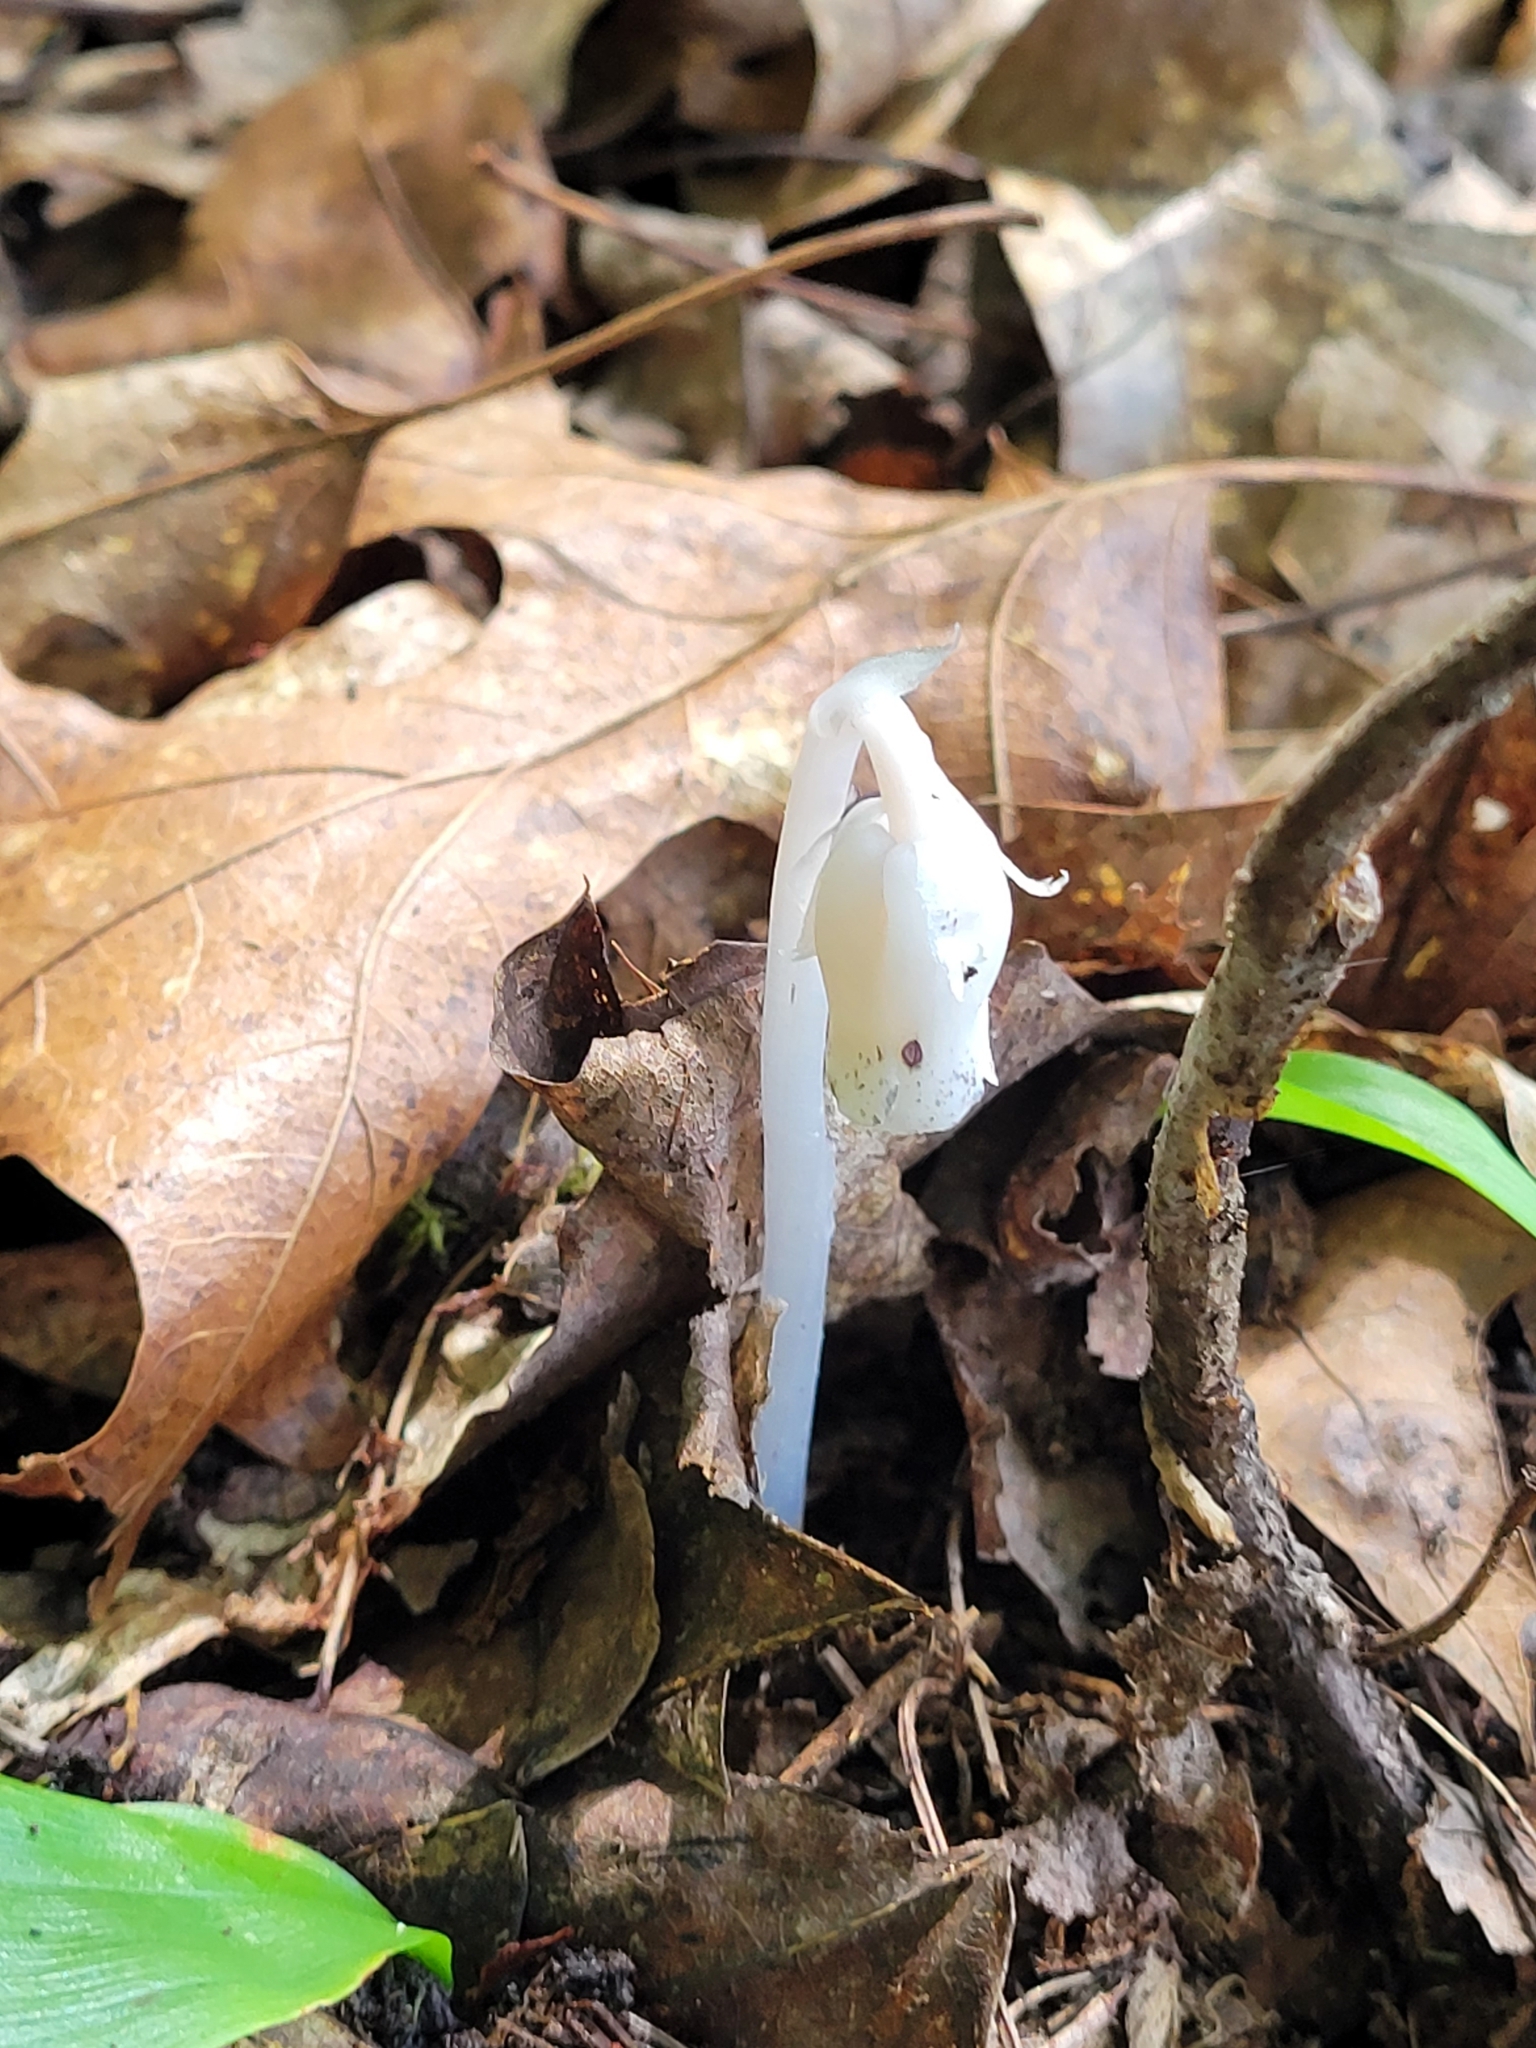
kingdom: Plantae
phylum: Tracheophyta
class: Magnoliopsida
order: Ericales
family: Ericaceae
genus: Monotropa
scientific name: Monotropa uniflora
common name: Convulsion root
